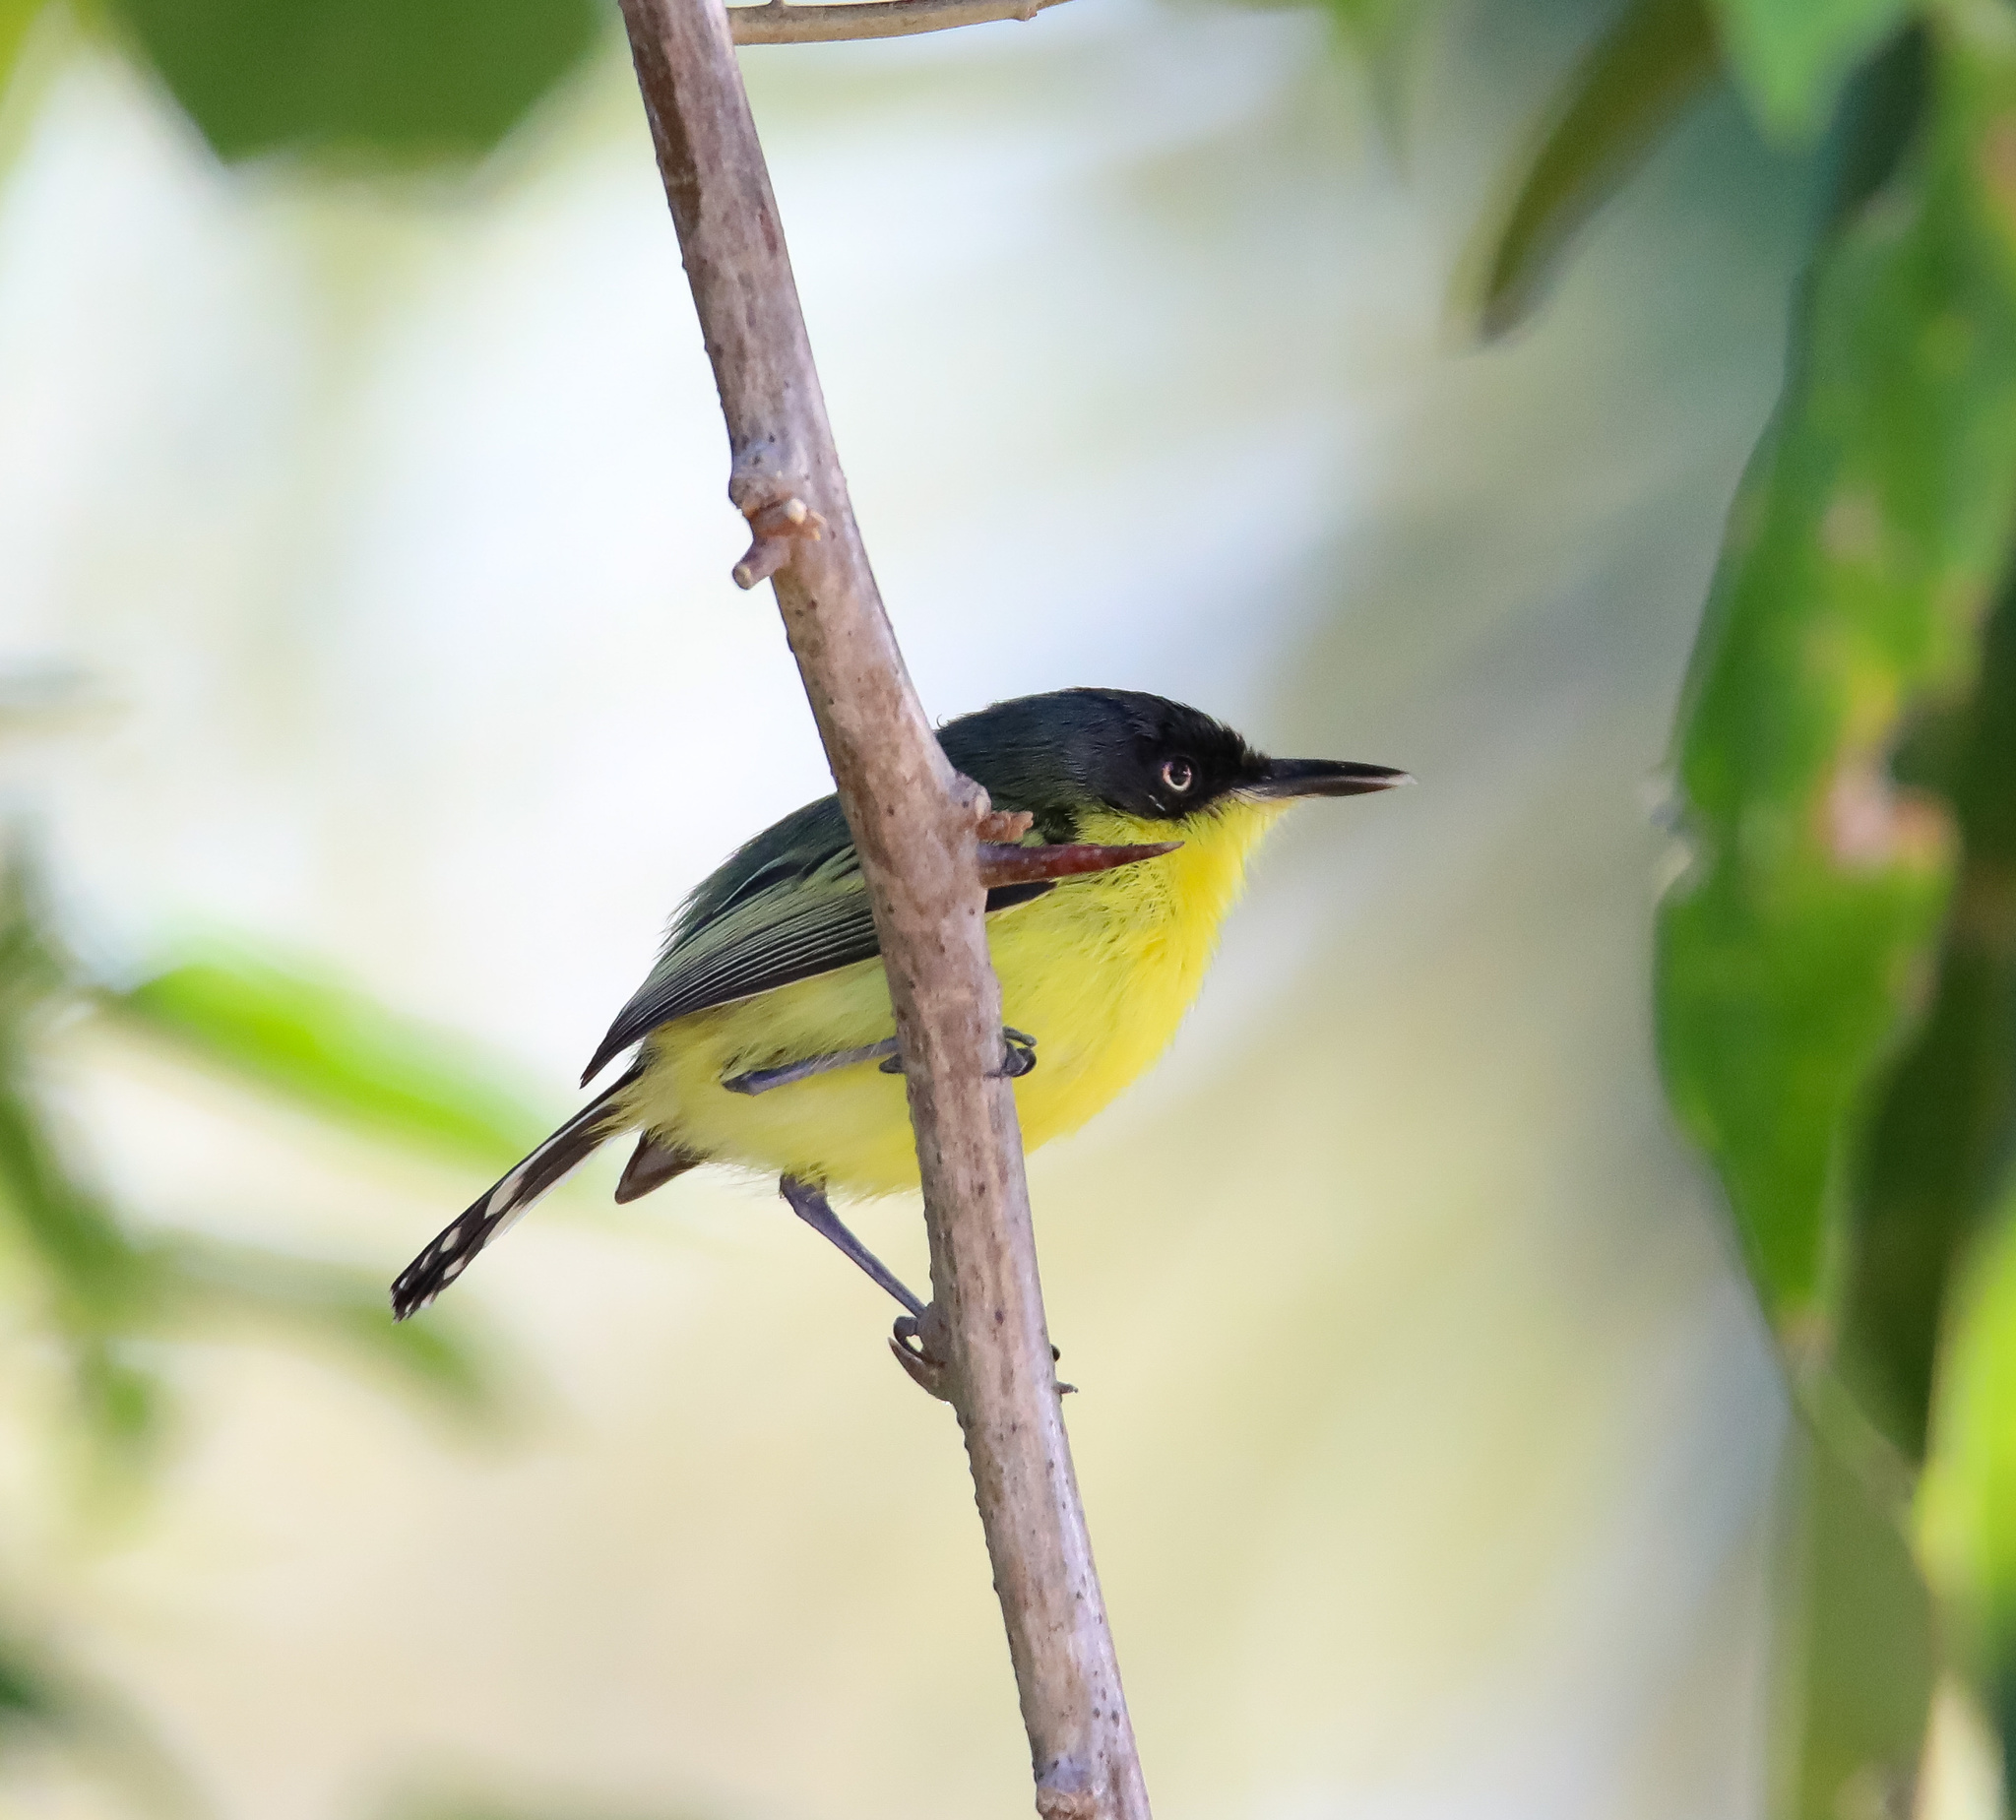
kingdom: Animalia
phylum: Chordata
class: Aves
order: Passeriformes
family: Tyrannidae
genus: Todirostrum
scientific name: Todirostrum cinereum
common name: Common tody-flycatcher
